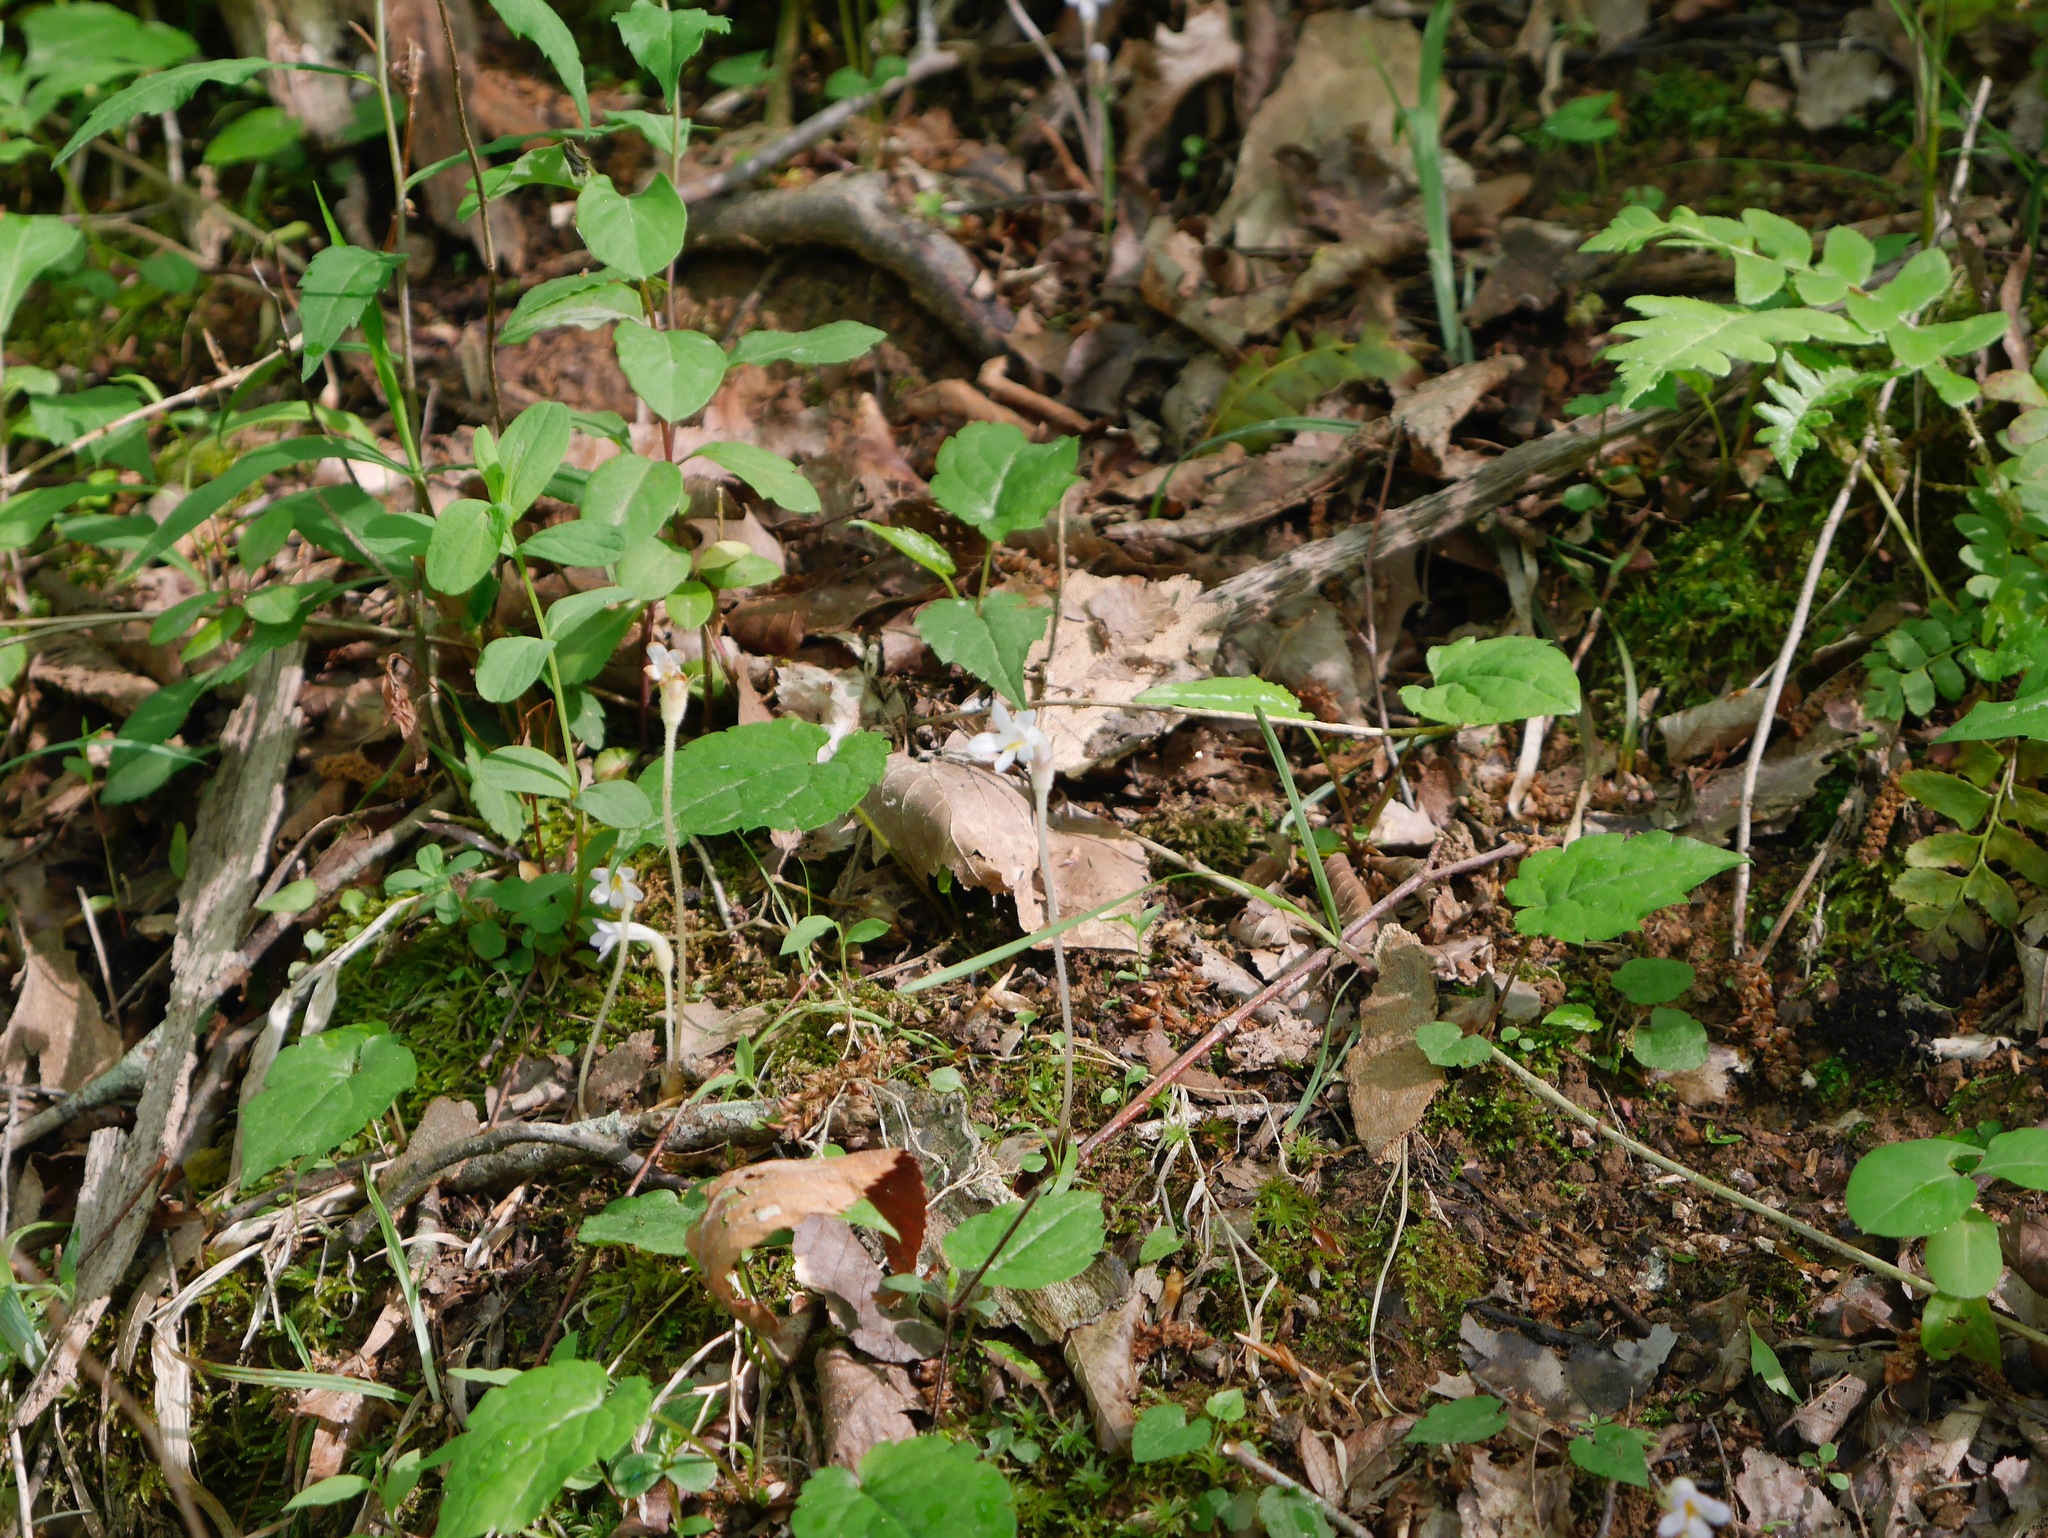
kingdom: Plantae
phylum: Tracheophyta
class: Magnoliopsida
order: Lamiales
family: Orobanchaceae
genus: Aphyllon
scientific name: Aphyllon uniflorum
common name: One-flowered broomrape
